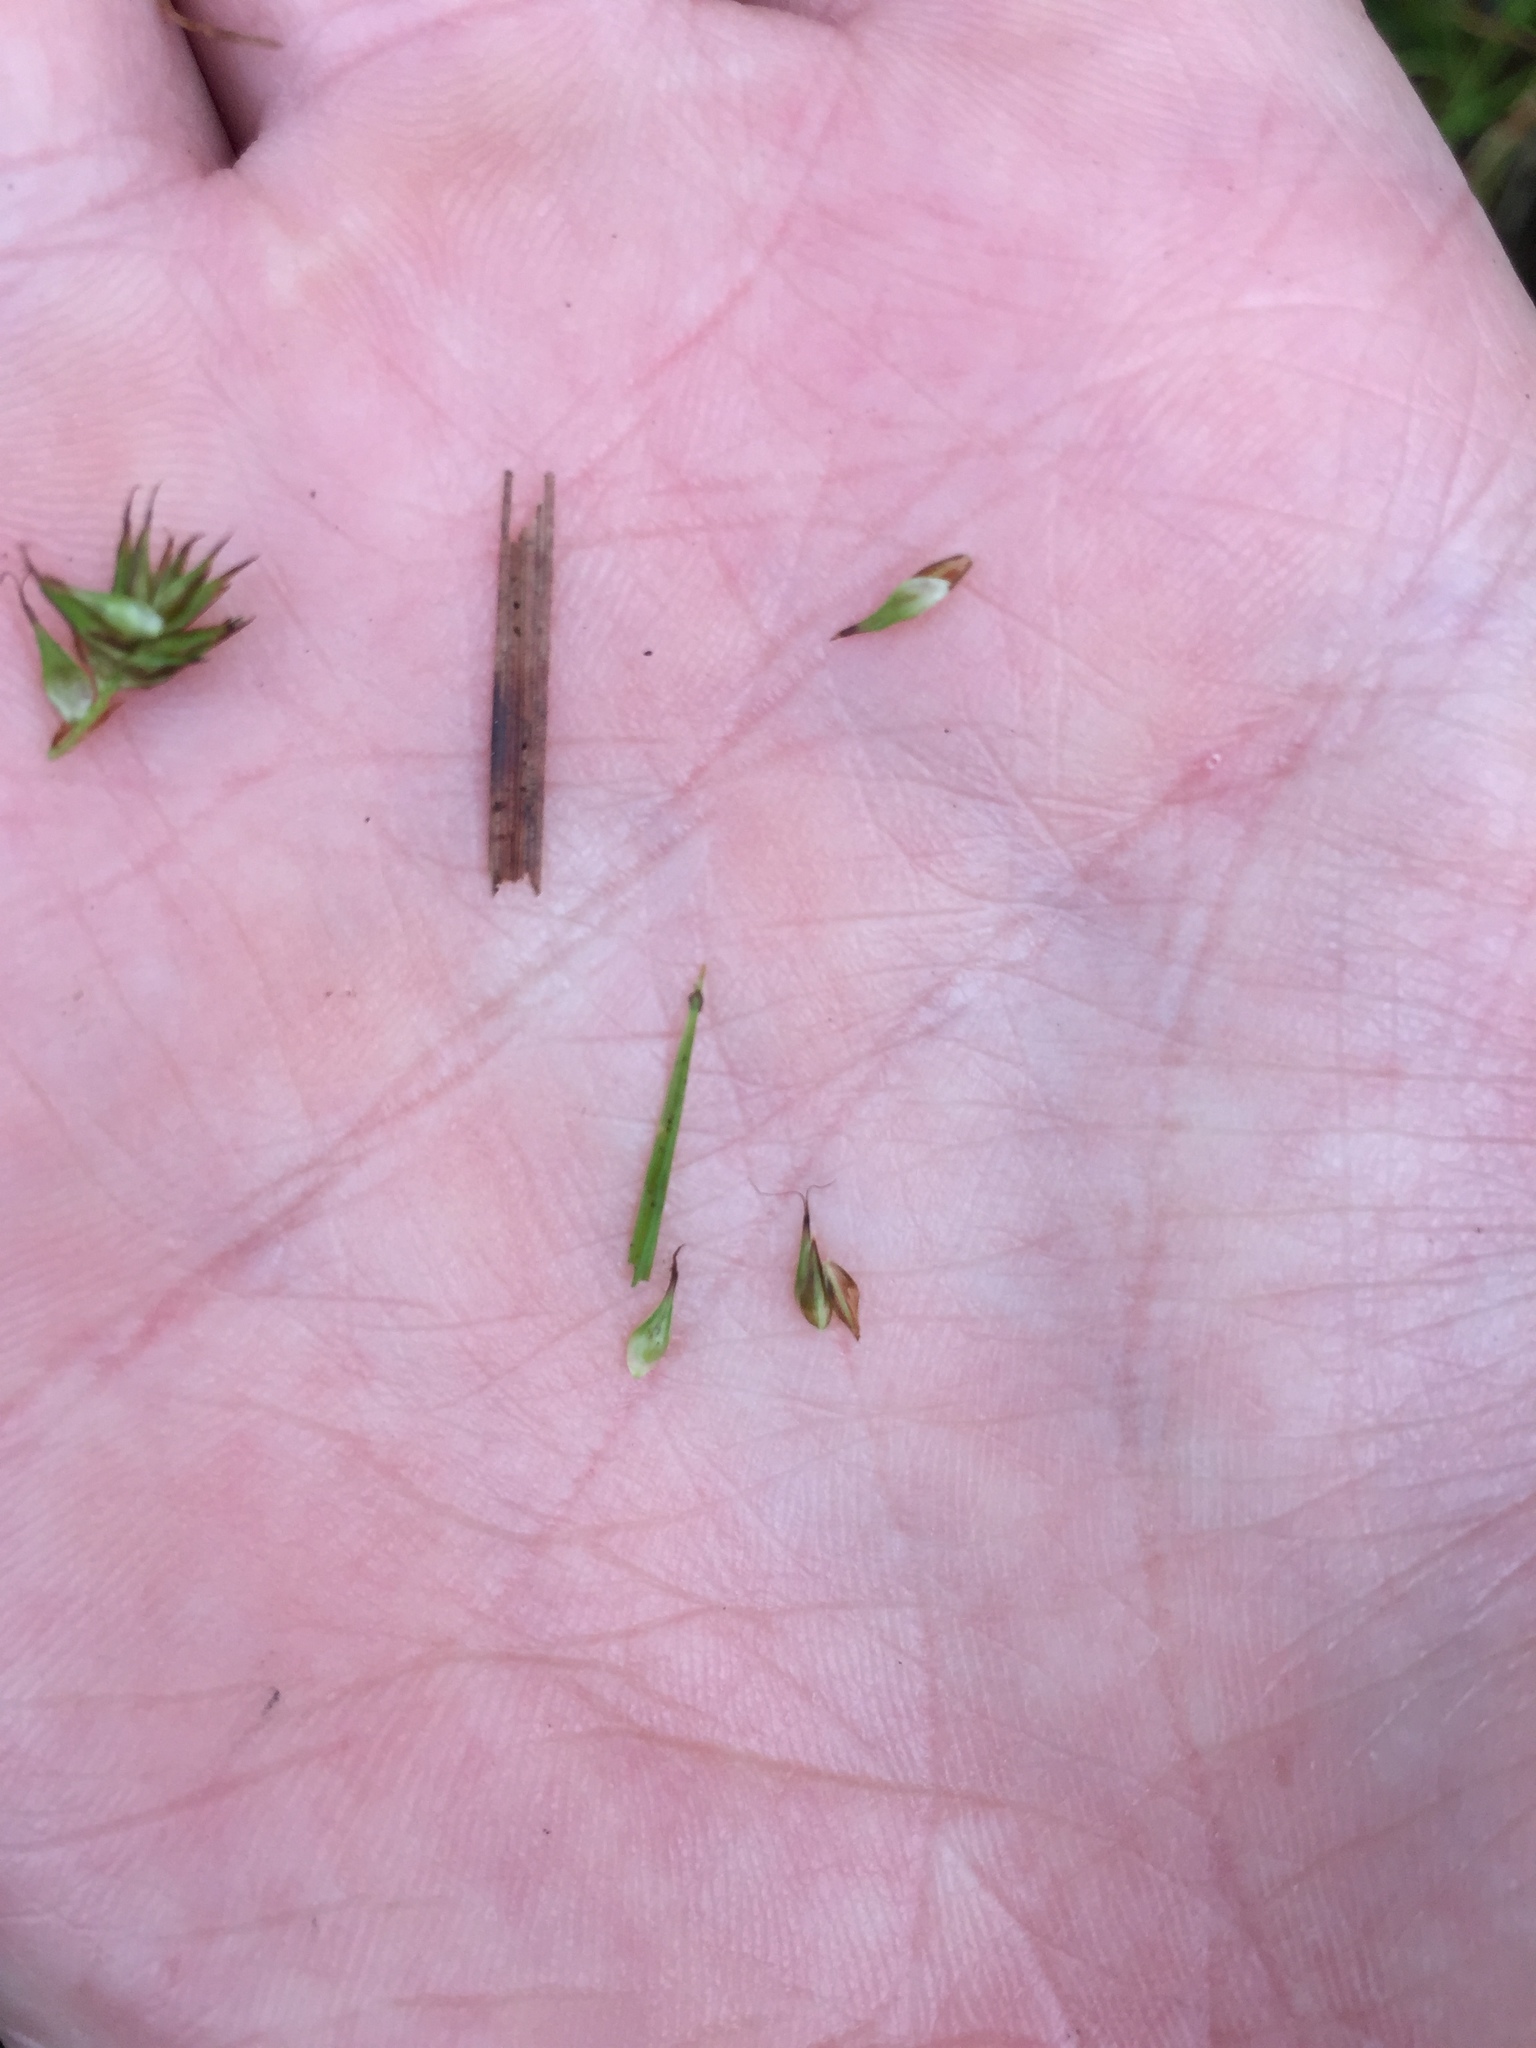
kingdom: Plantae
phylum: Tracheophyta
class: Liliopsida
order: Poales
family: Cyperaceae
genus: Carex
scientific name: Carex subbracteata
